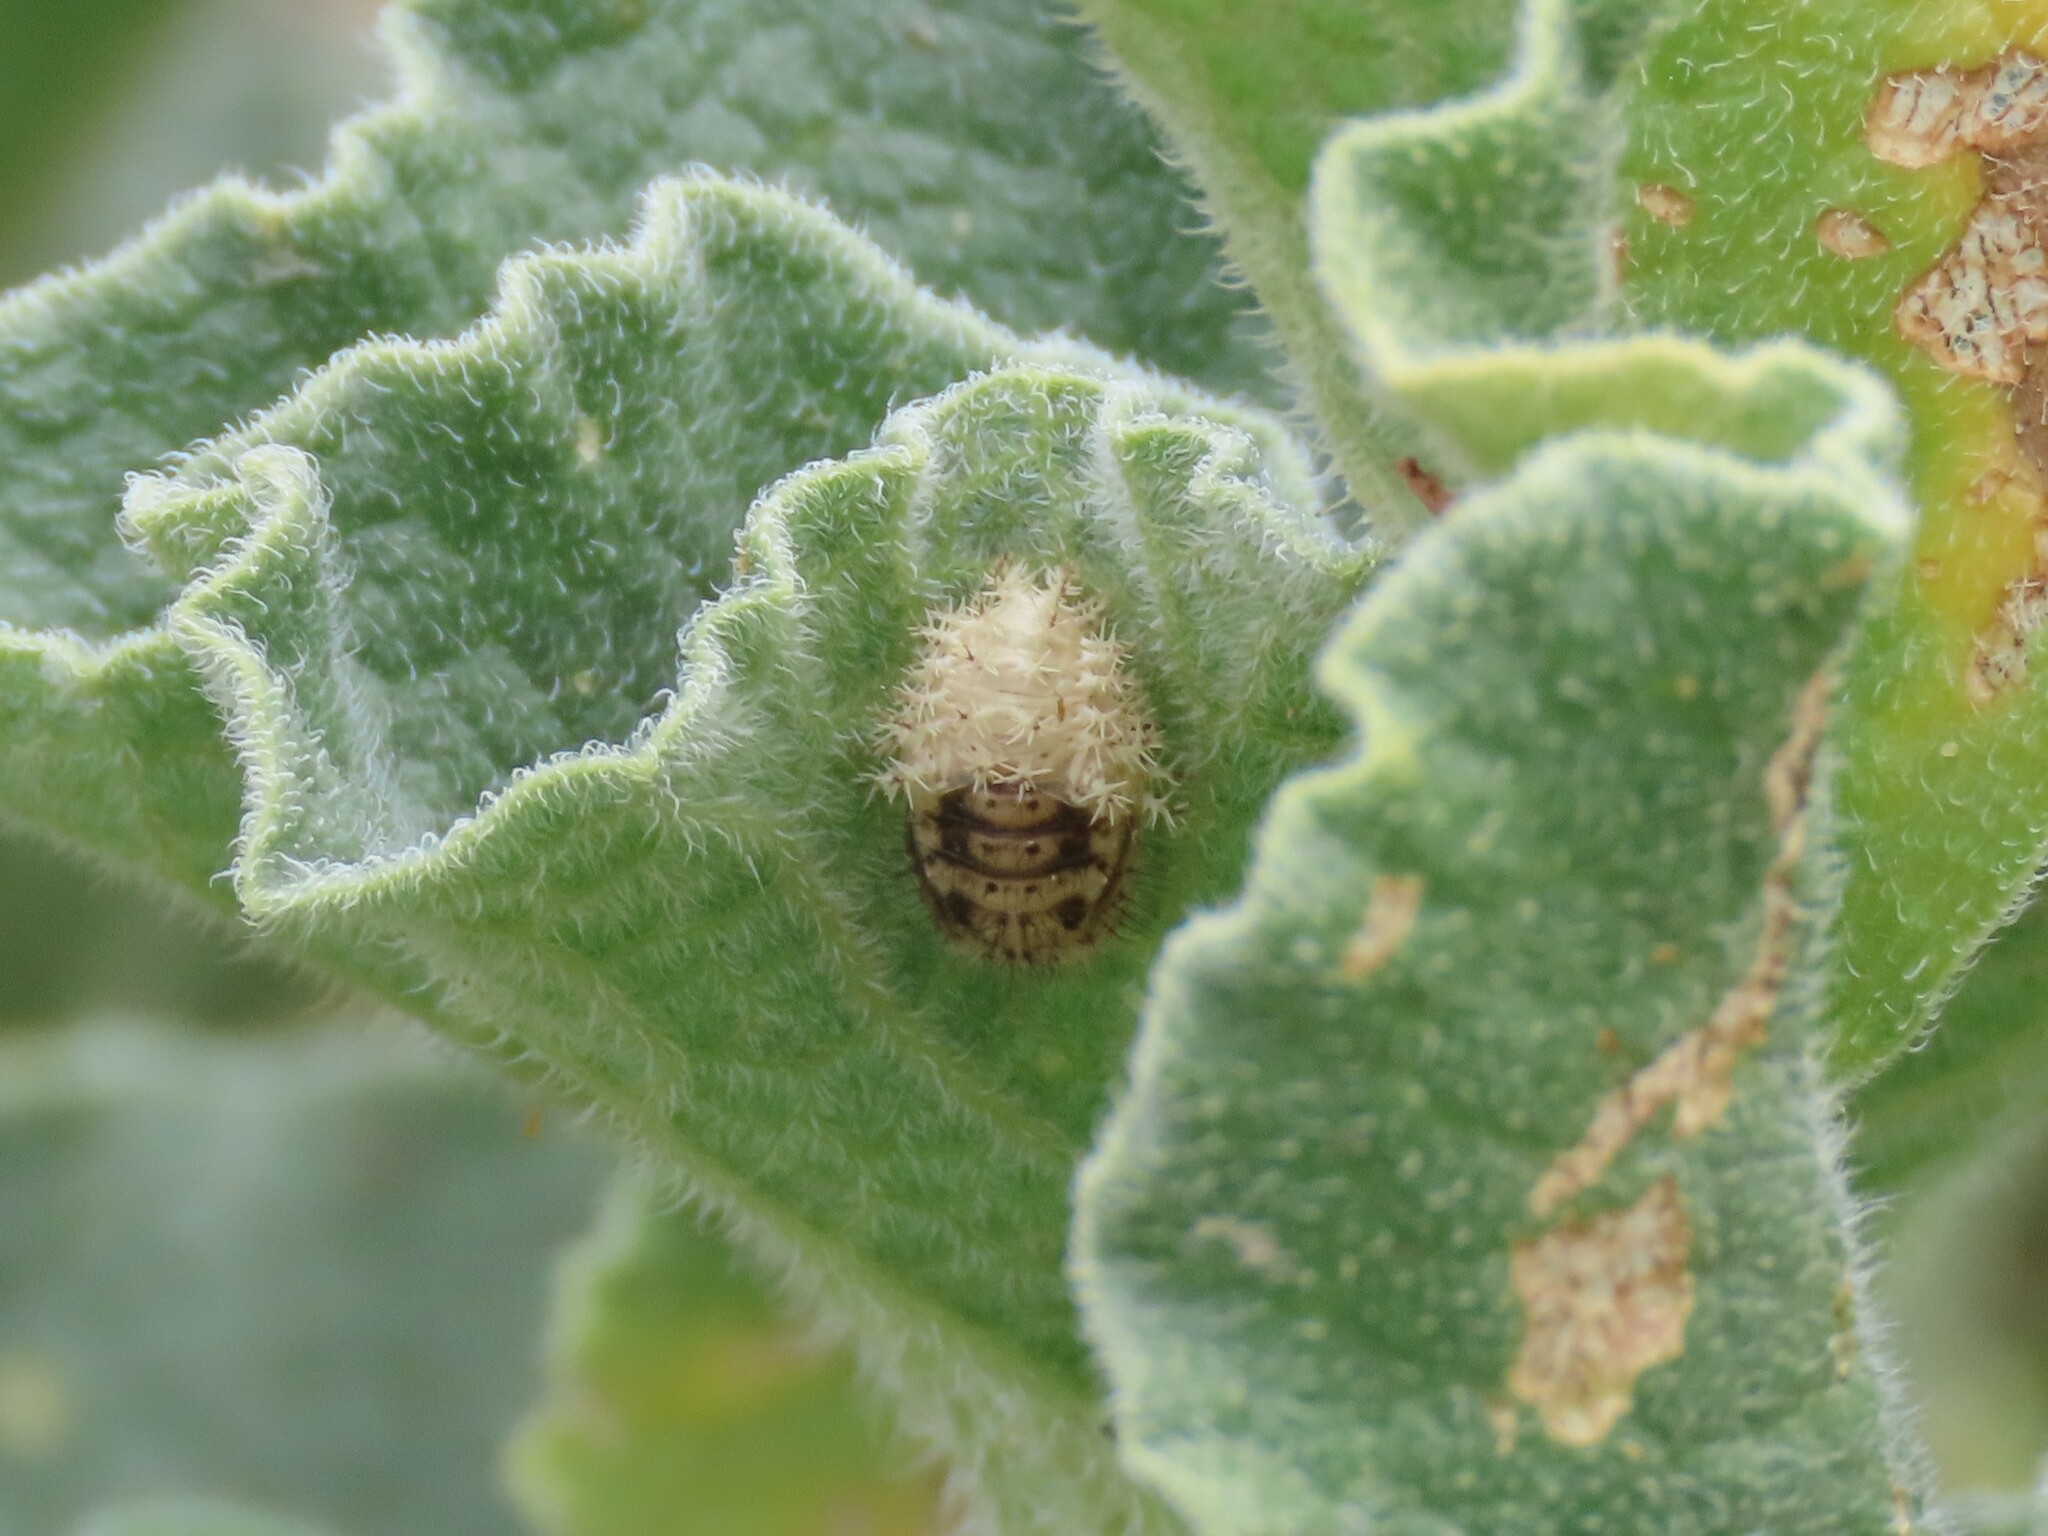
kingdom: Animalia
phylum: Arthropoda
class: Insecta
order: Coleoptera
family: Coccinellidae
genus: Henosepilachna
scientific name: Henosepilachna argus
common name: Bryony ladybird
